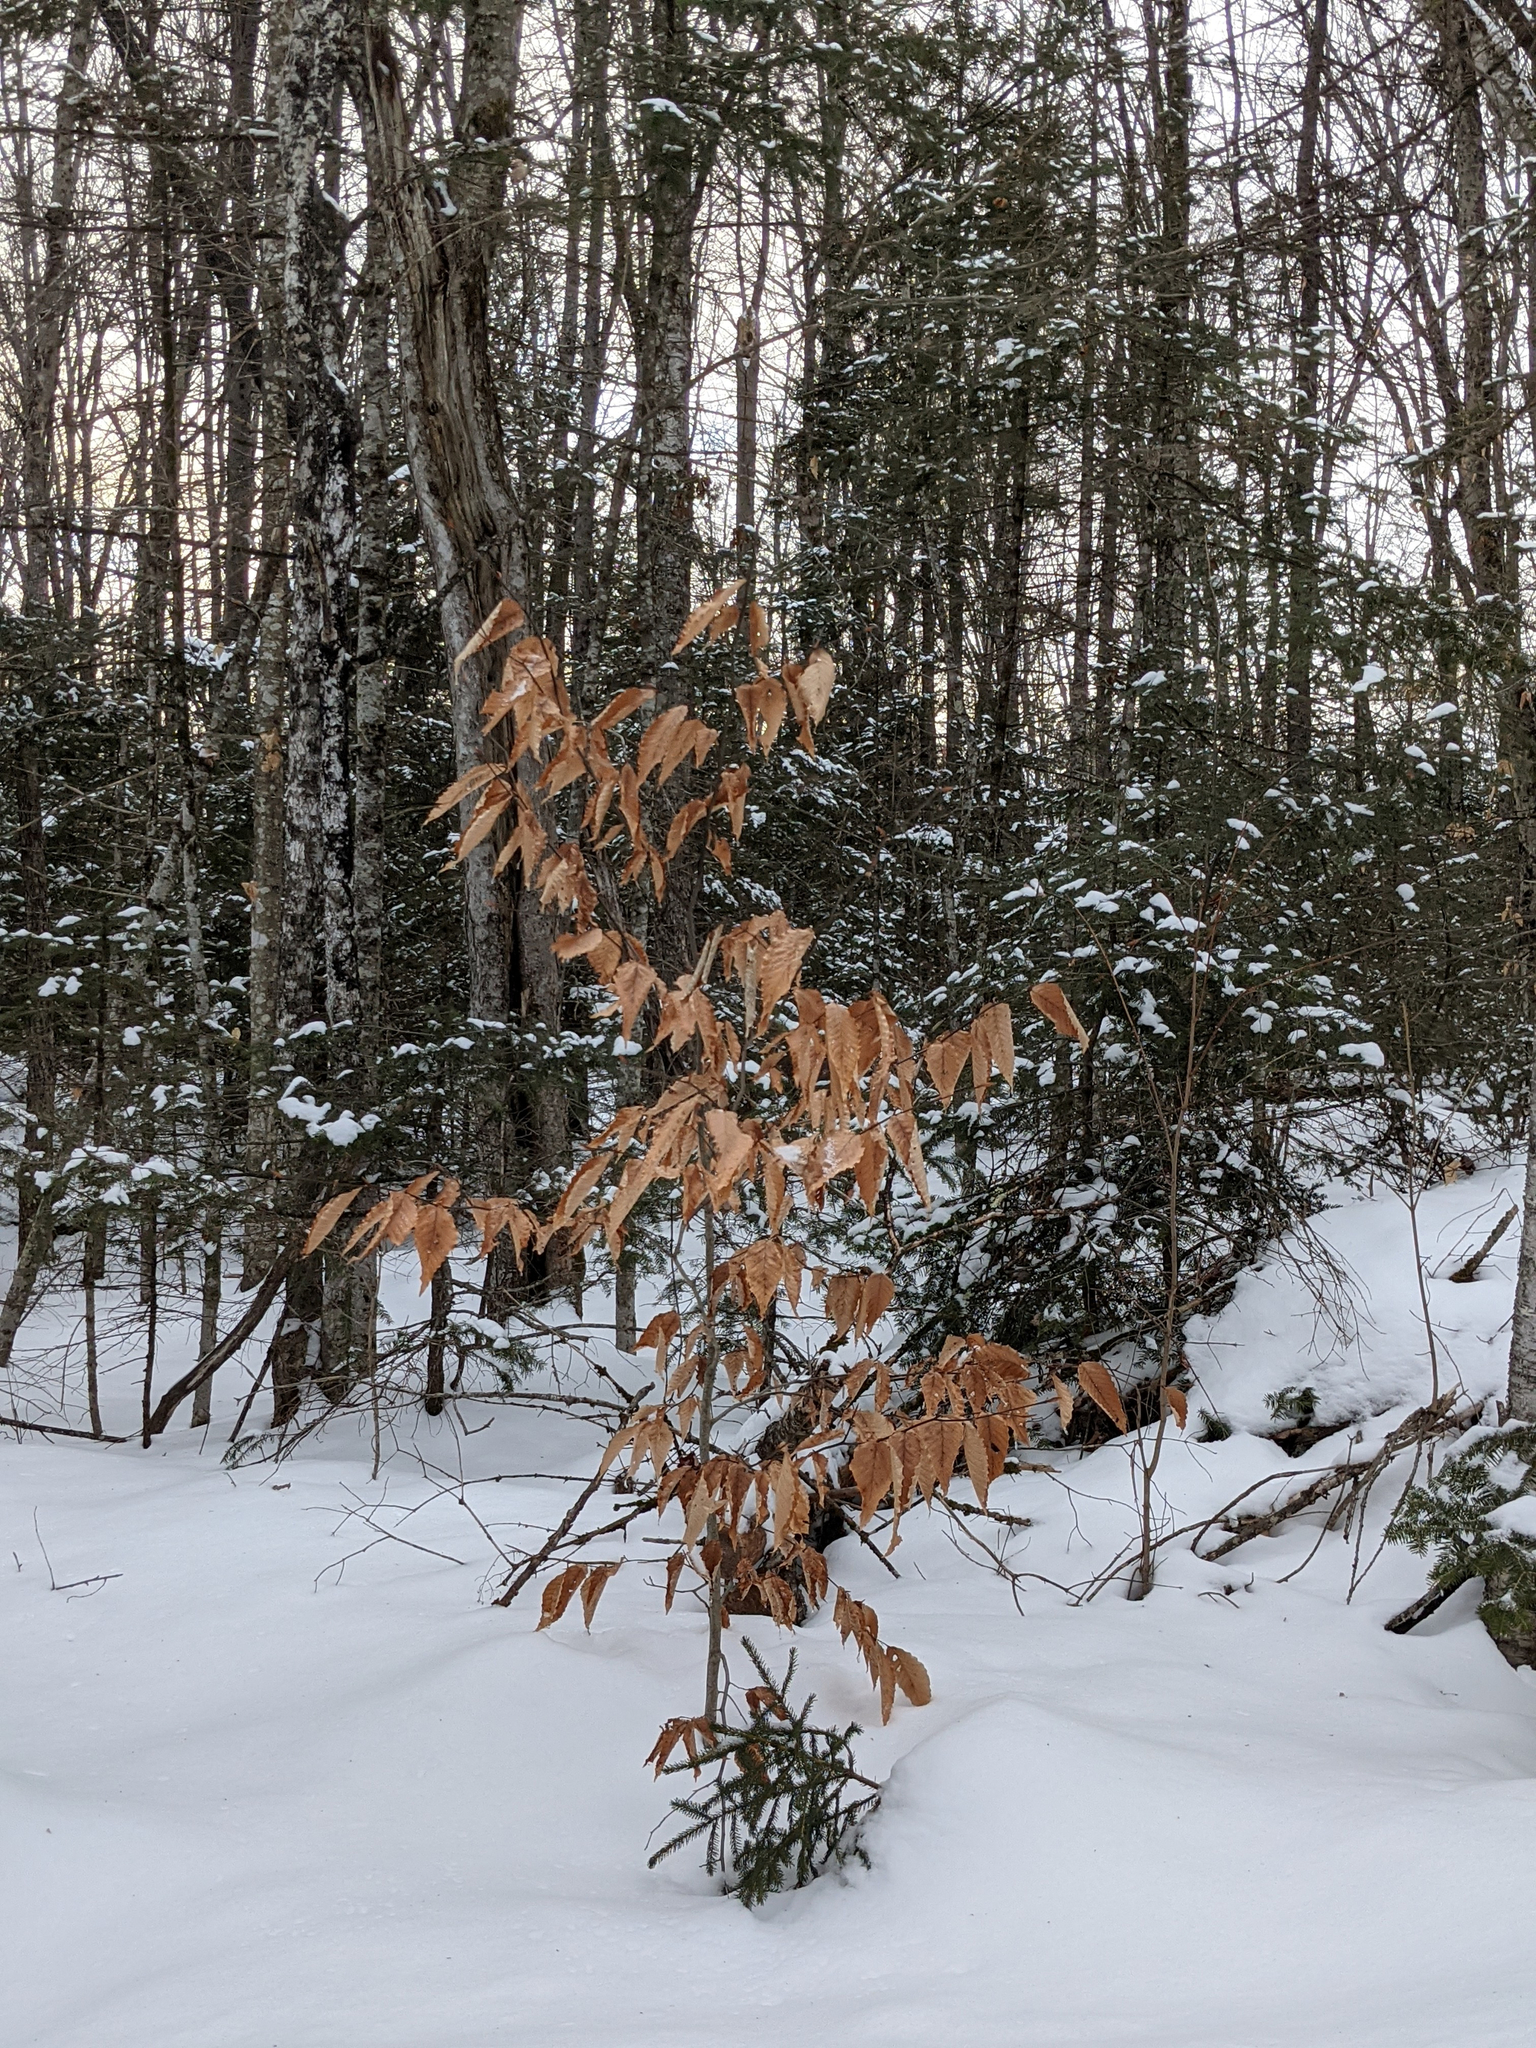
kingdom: Plantae
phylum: Tracheophyta
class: Magnoliopsida
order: Fagales
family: Fagaceae
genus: Fagus
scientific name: Fagus grandifolia
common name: American beech
